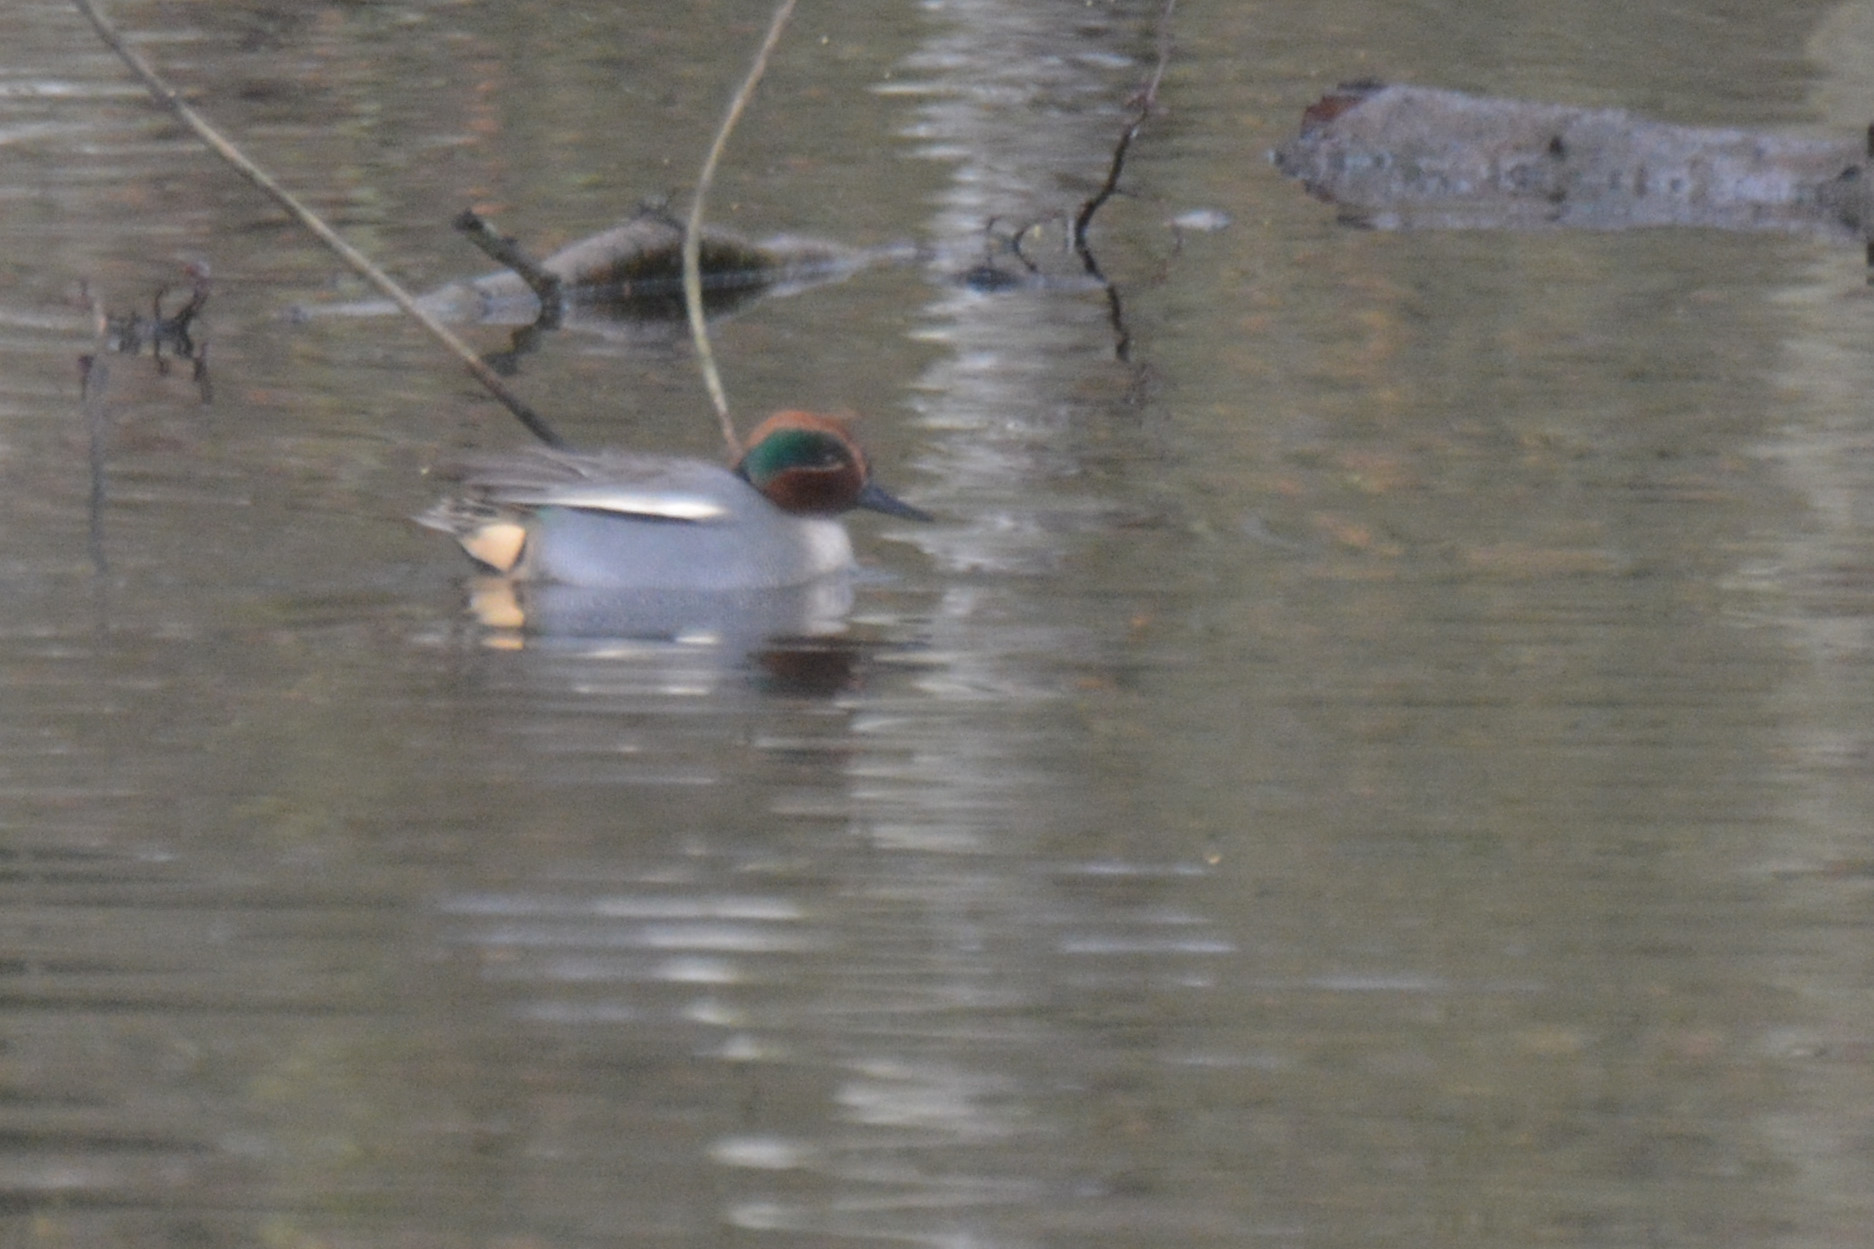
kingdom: Animalia
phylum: Chordata
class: Aves
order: Anseriformes
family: Anatidae
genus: Anas
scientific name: Anas crecca
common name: Eurasian teal
